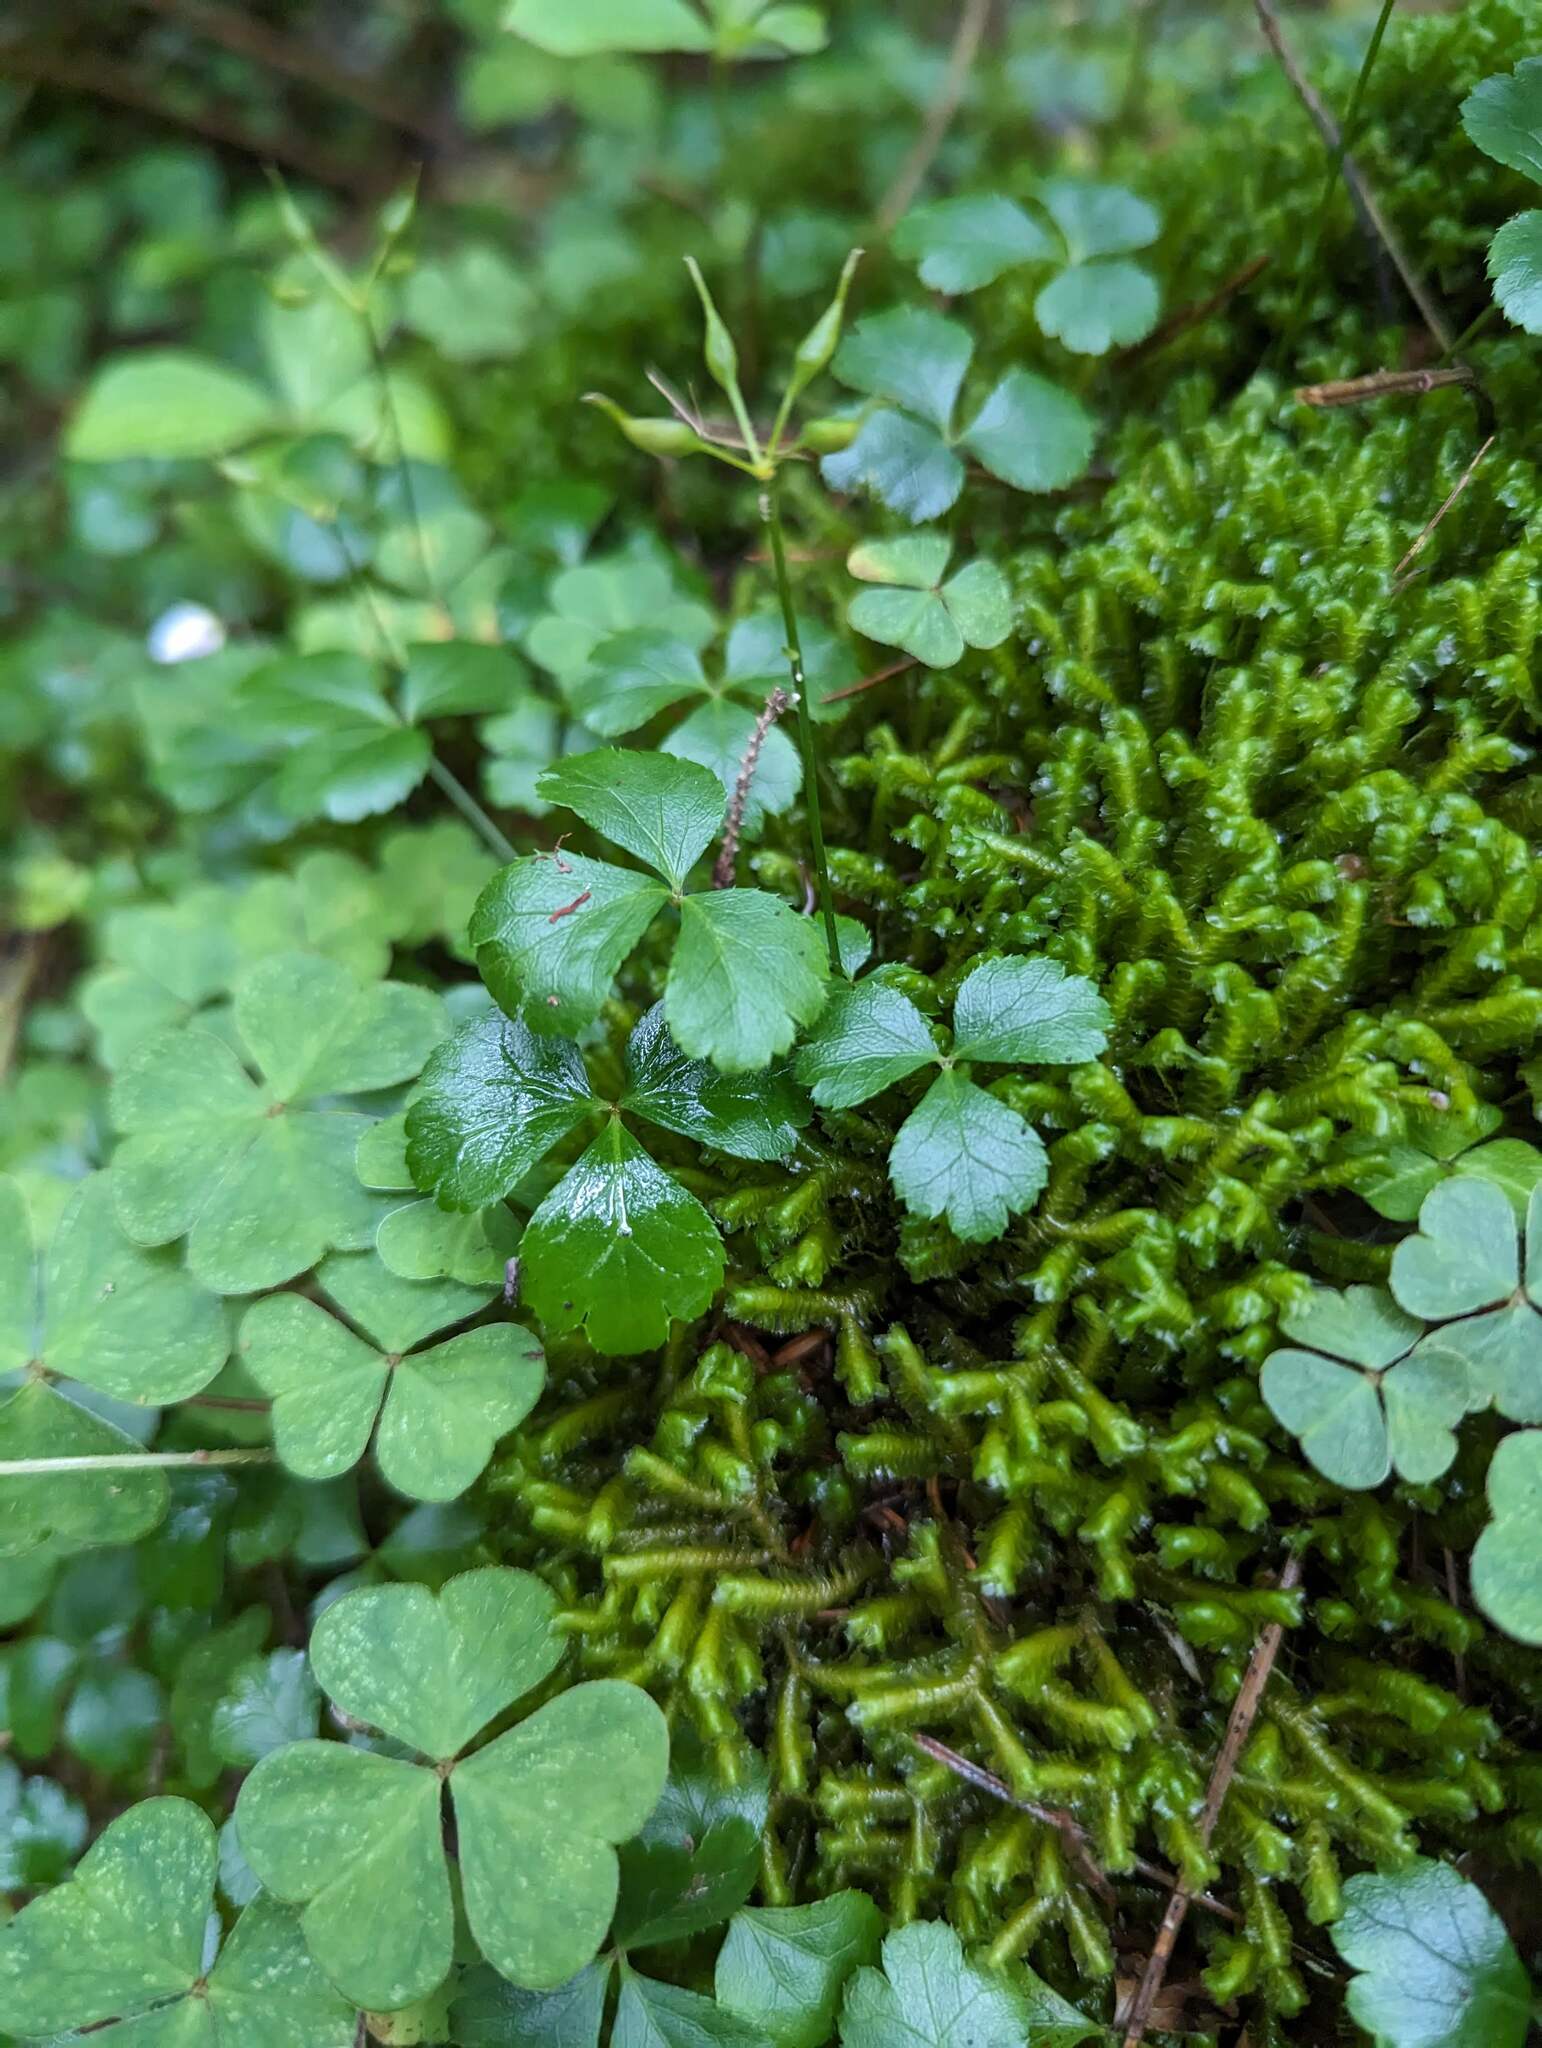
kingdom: Plantae
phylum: Tracheophyta
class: Magnoliopsida
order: Ranunculales
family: Ranunculaceae
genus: Coptis
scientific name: Coptis trifolia
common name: Canker-root
